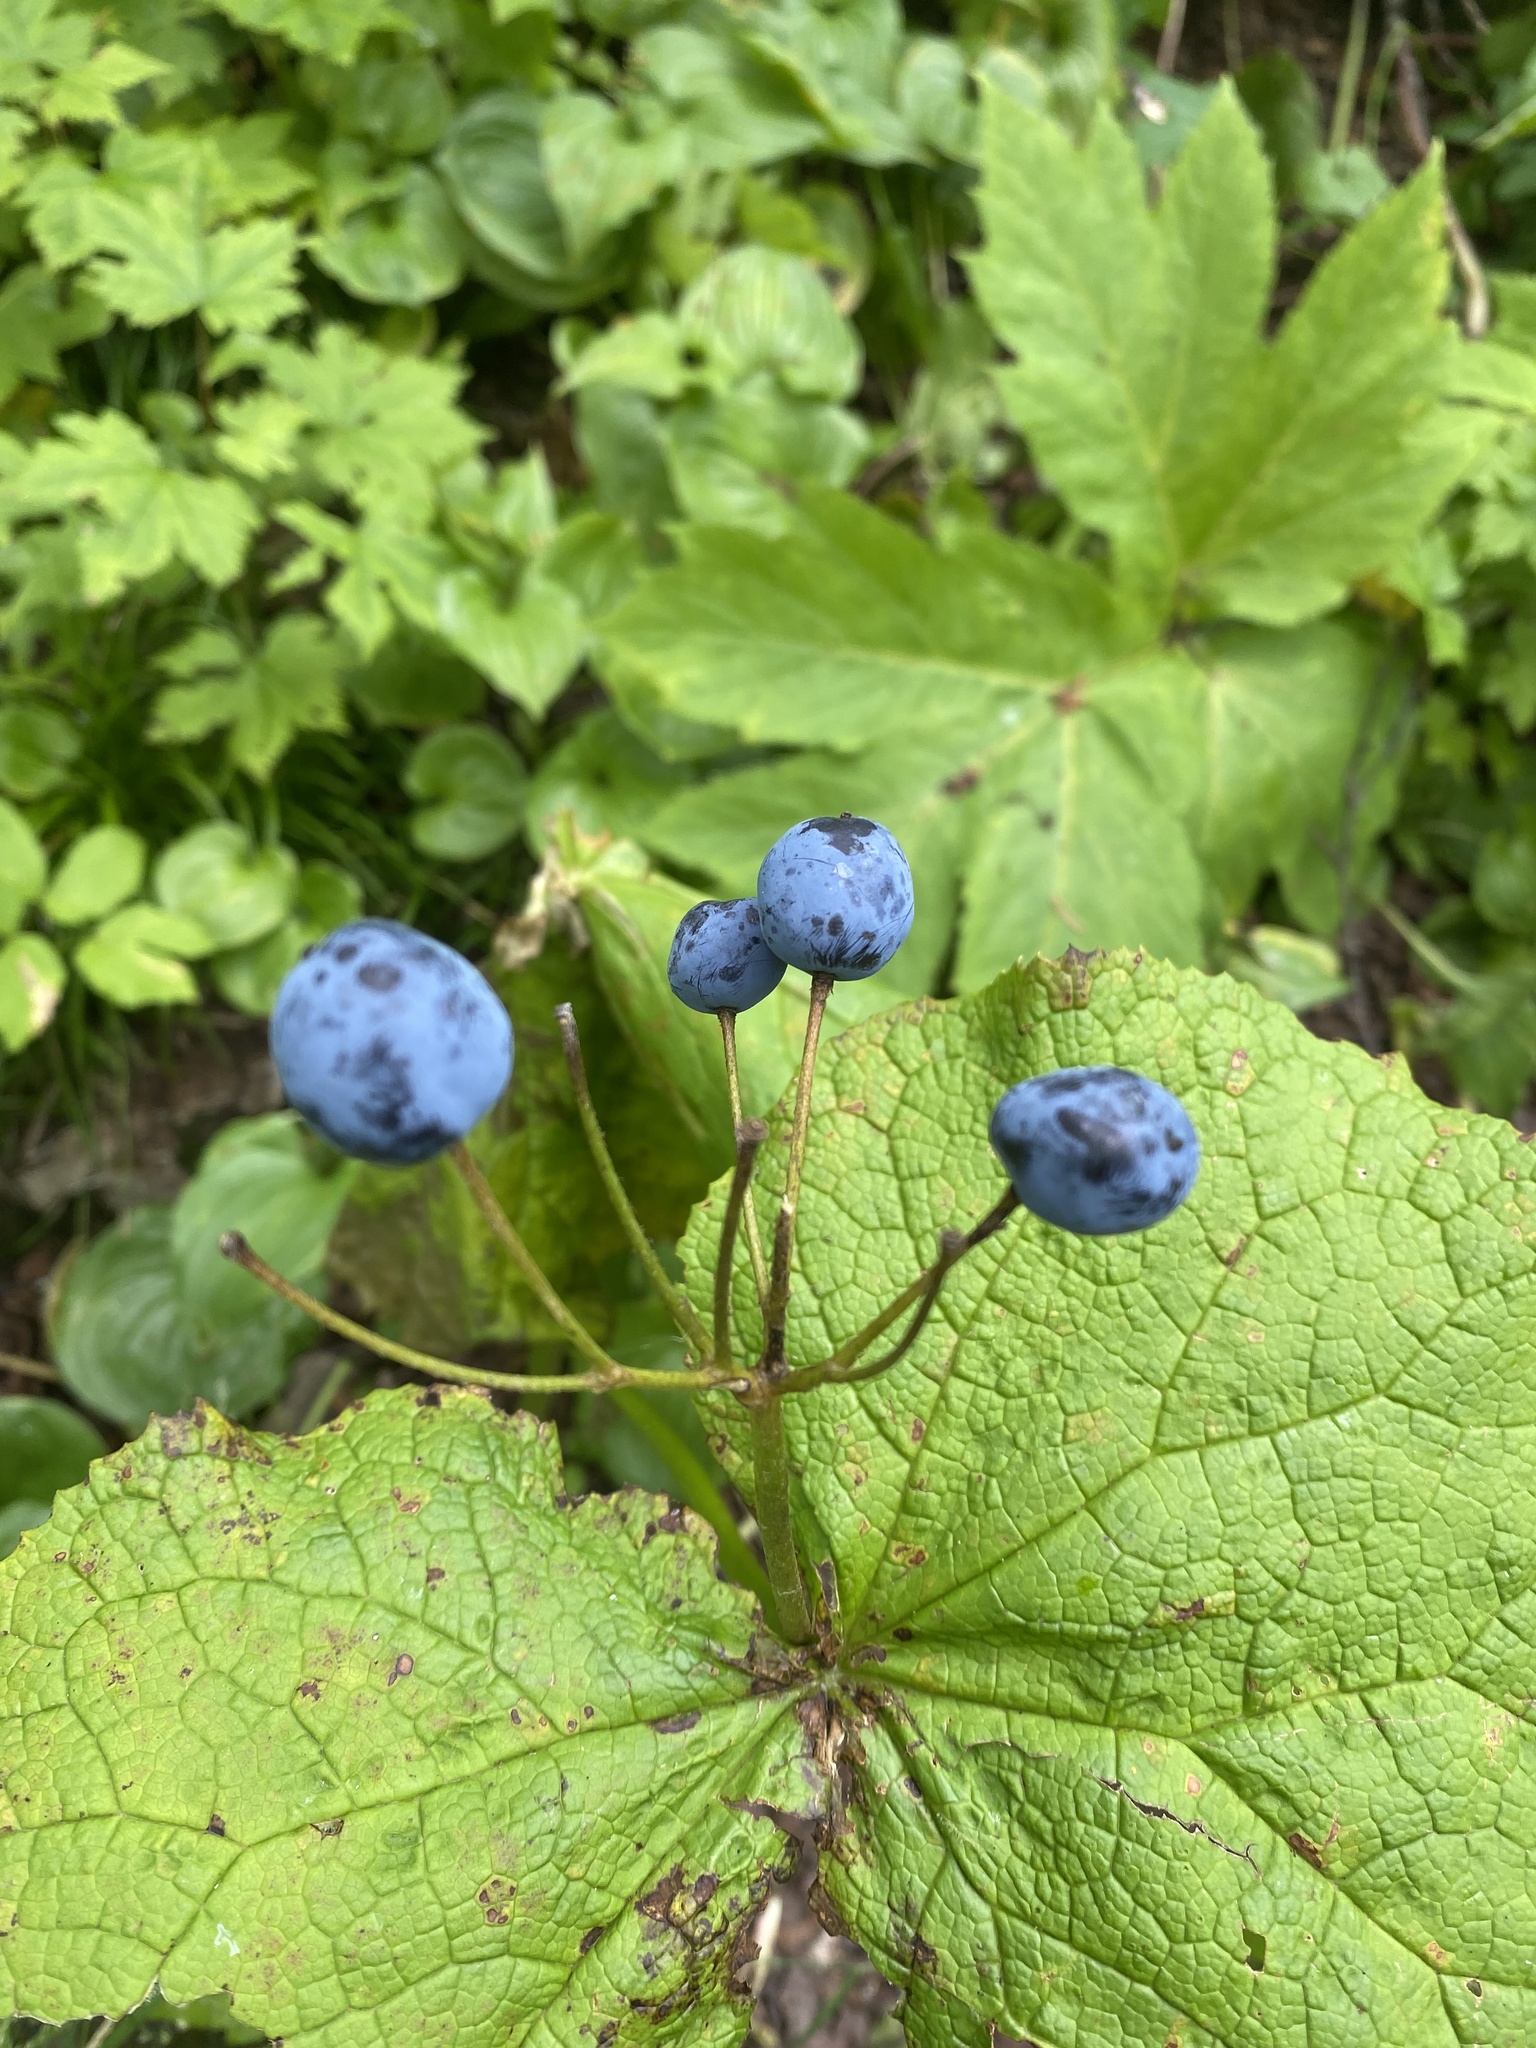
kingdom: Plantae
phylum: Tracheophyta
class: Magnoliopsida
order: Ranunculales
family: Berberidaceae
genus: Diphylleia
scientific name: Diphylleia grayi
